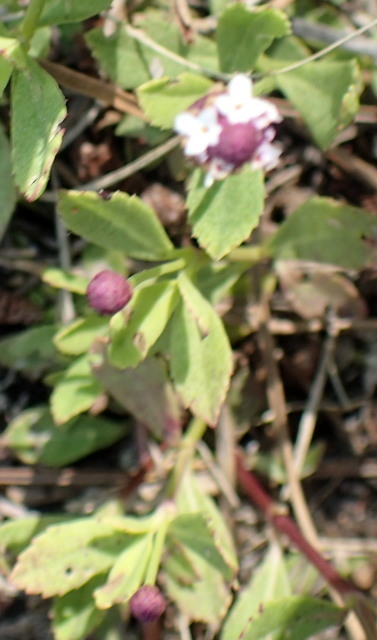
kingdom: Plantae
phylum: Tracheophyta
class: Magnoliopsida
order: Lamiales
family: Verbenaceae
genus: Phyla
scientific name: Phyla nodiflora
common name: Frogfruit
